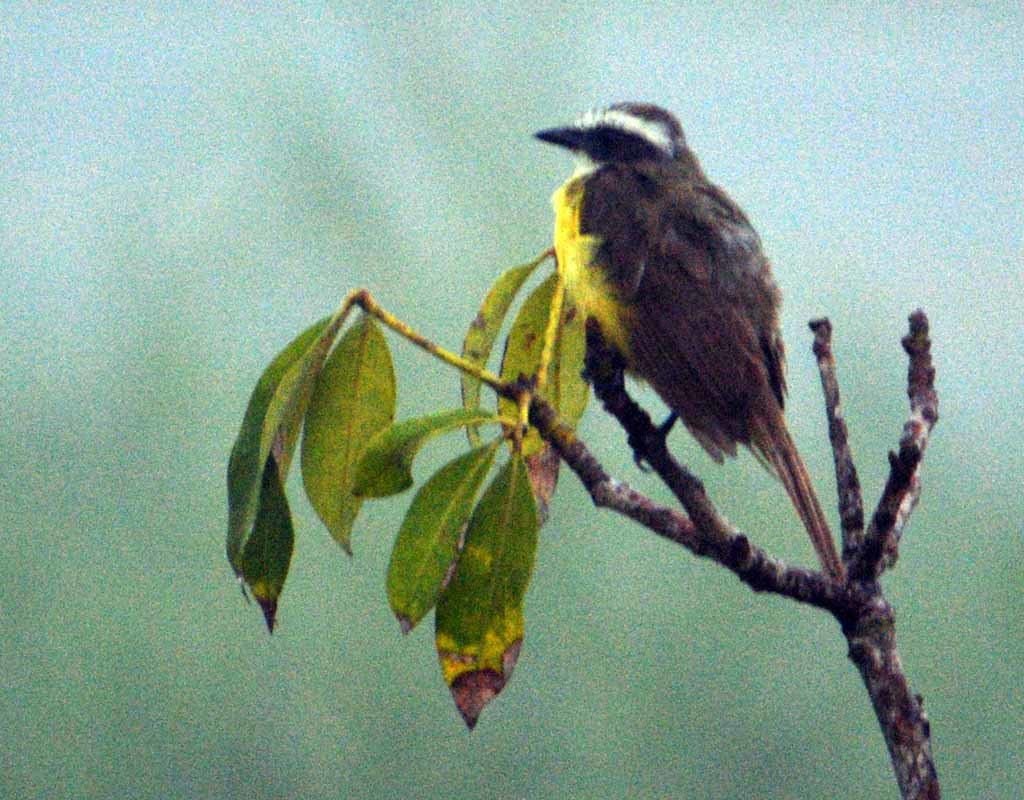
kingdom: Animalia
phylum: Chordata
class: Aves
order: Passeriformes
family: Tyrannidae
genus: Pitangus
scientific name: Pitangus sulphuratus
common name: Great kiskadee
